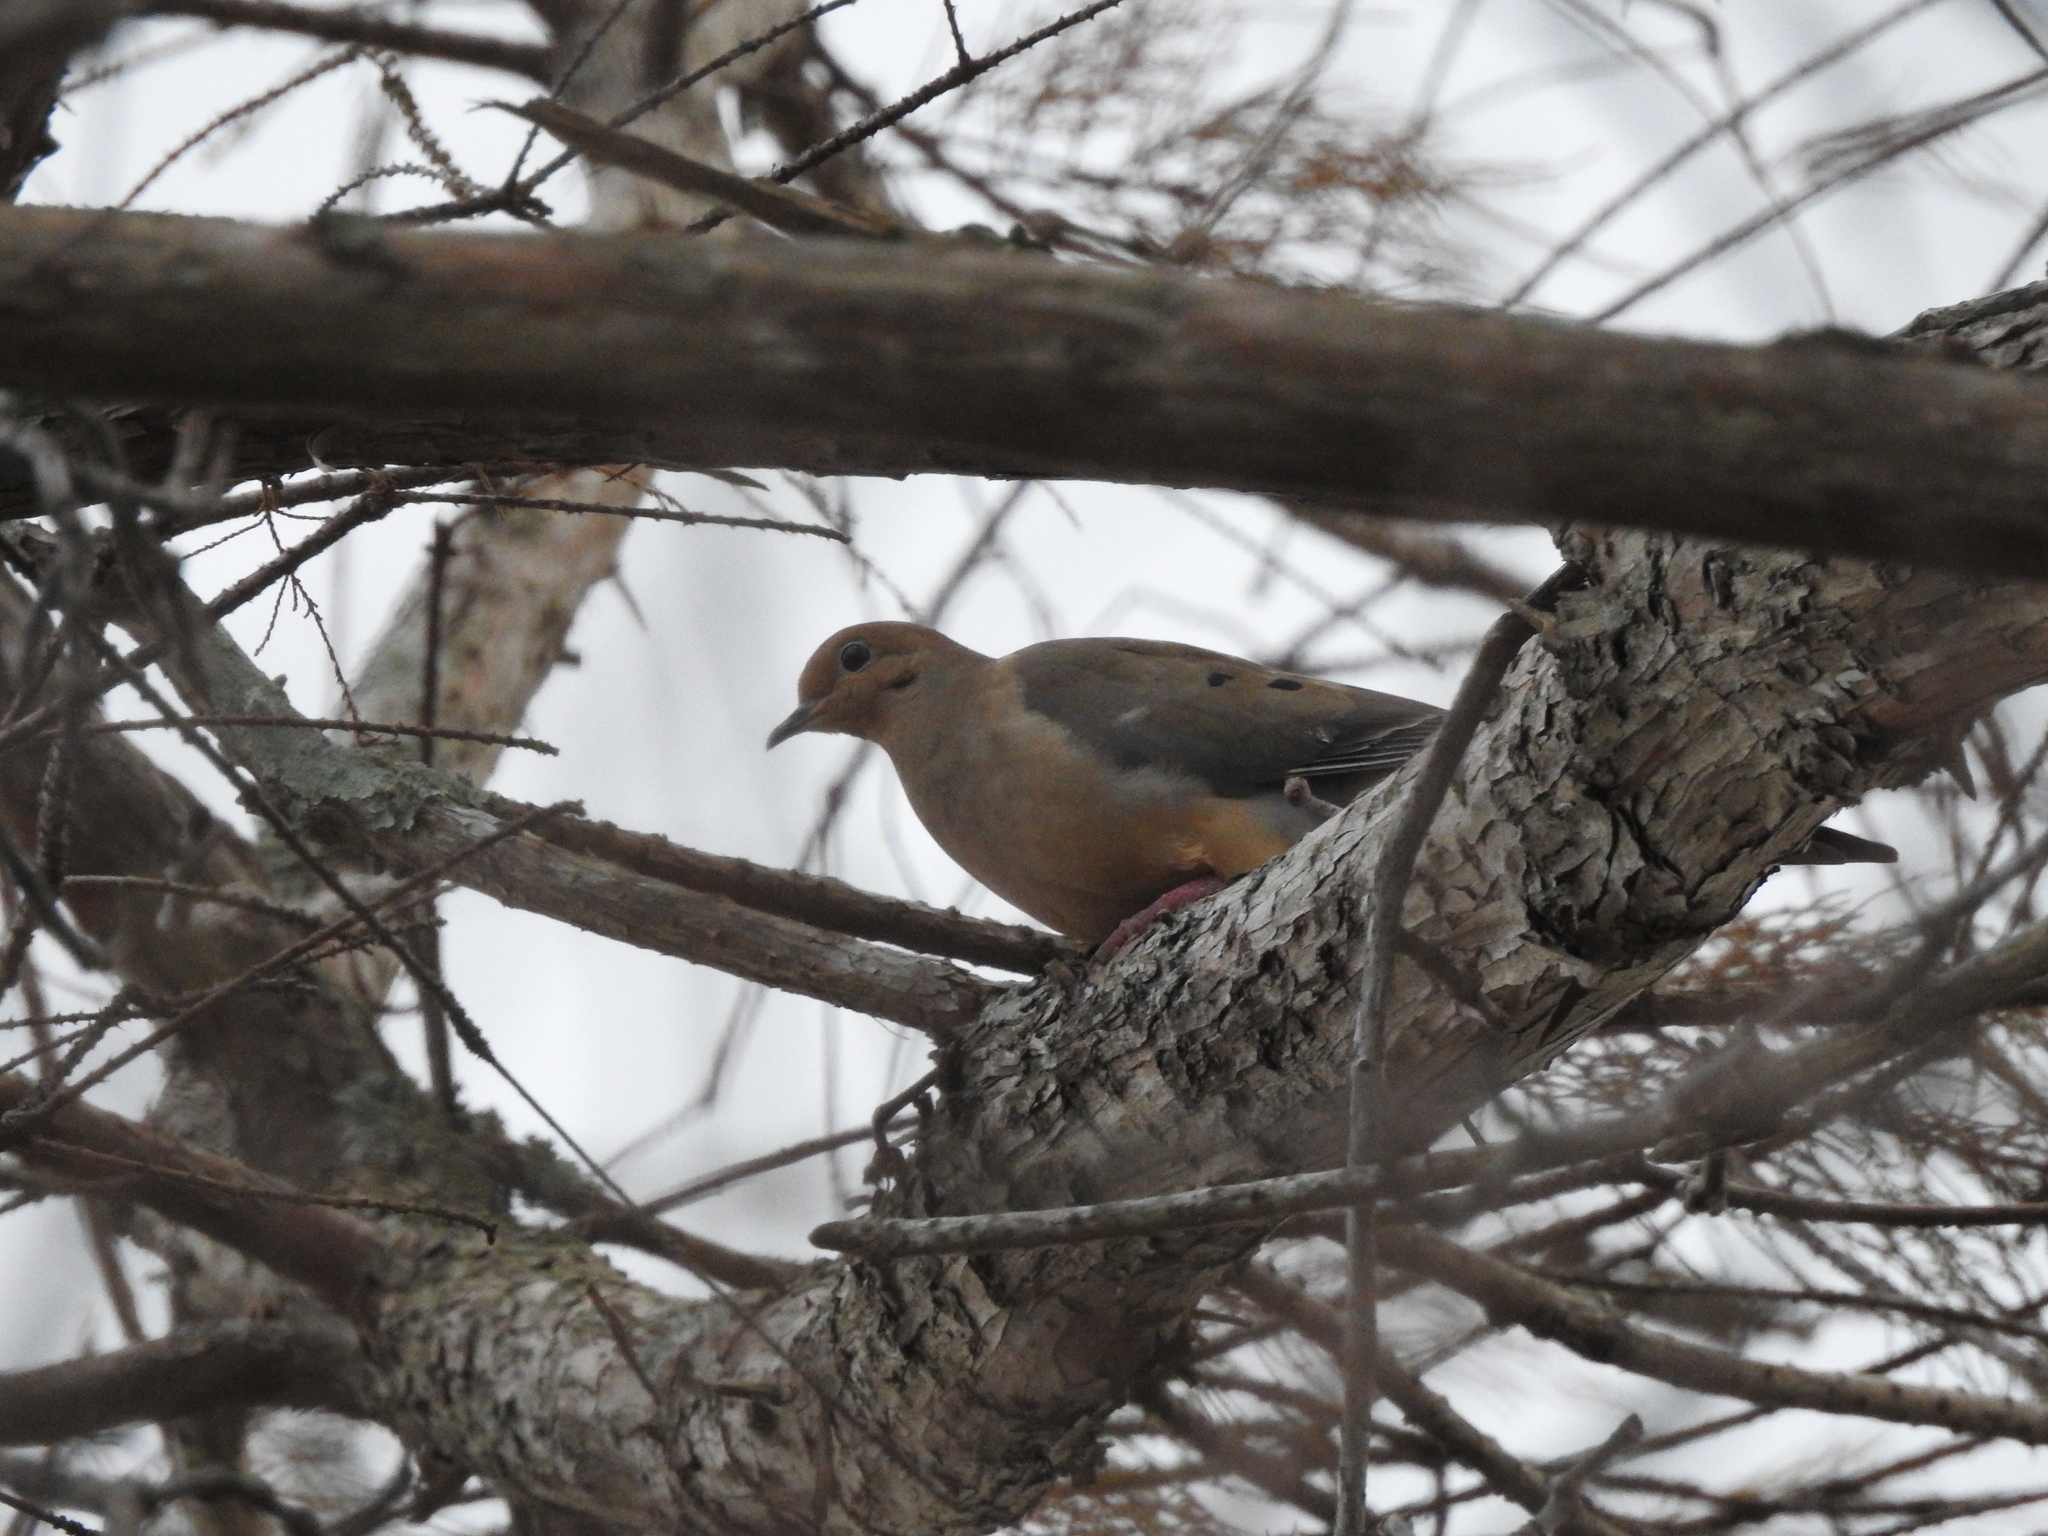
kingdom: Animalia
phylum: Chordata
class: Aves
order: Columbiformes
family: Columbidae
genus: Zenaida
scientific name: Zenaida macroura
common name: Mourning dove
